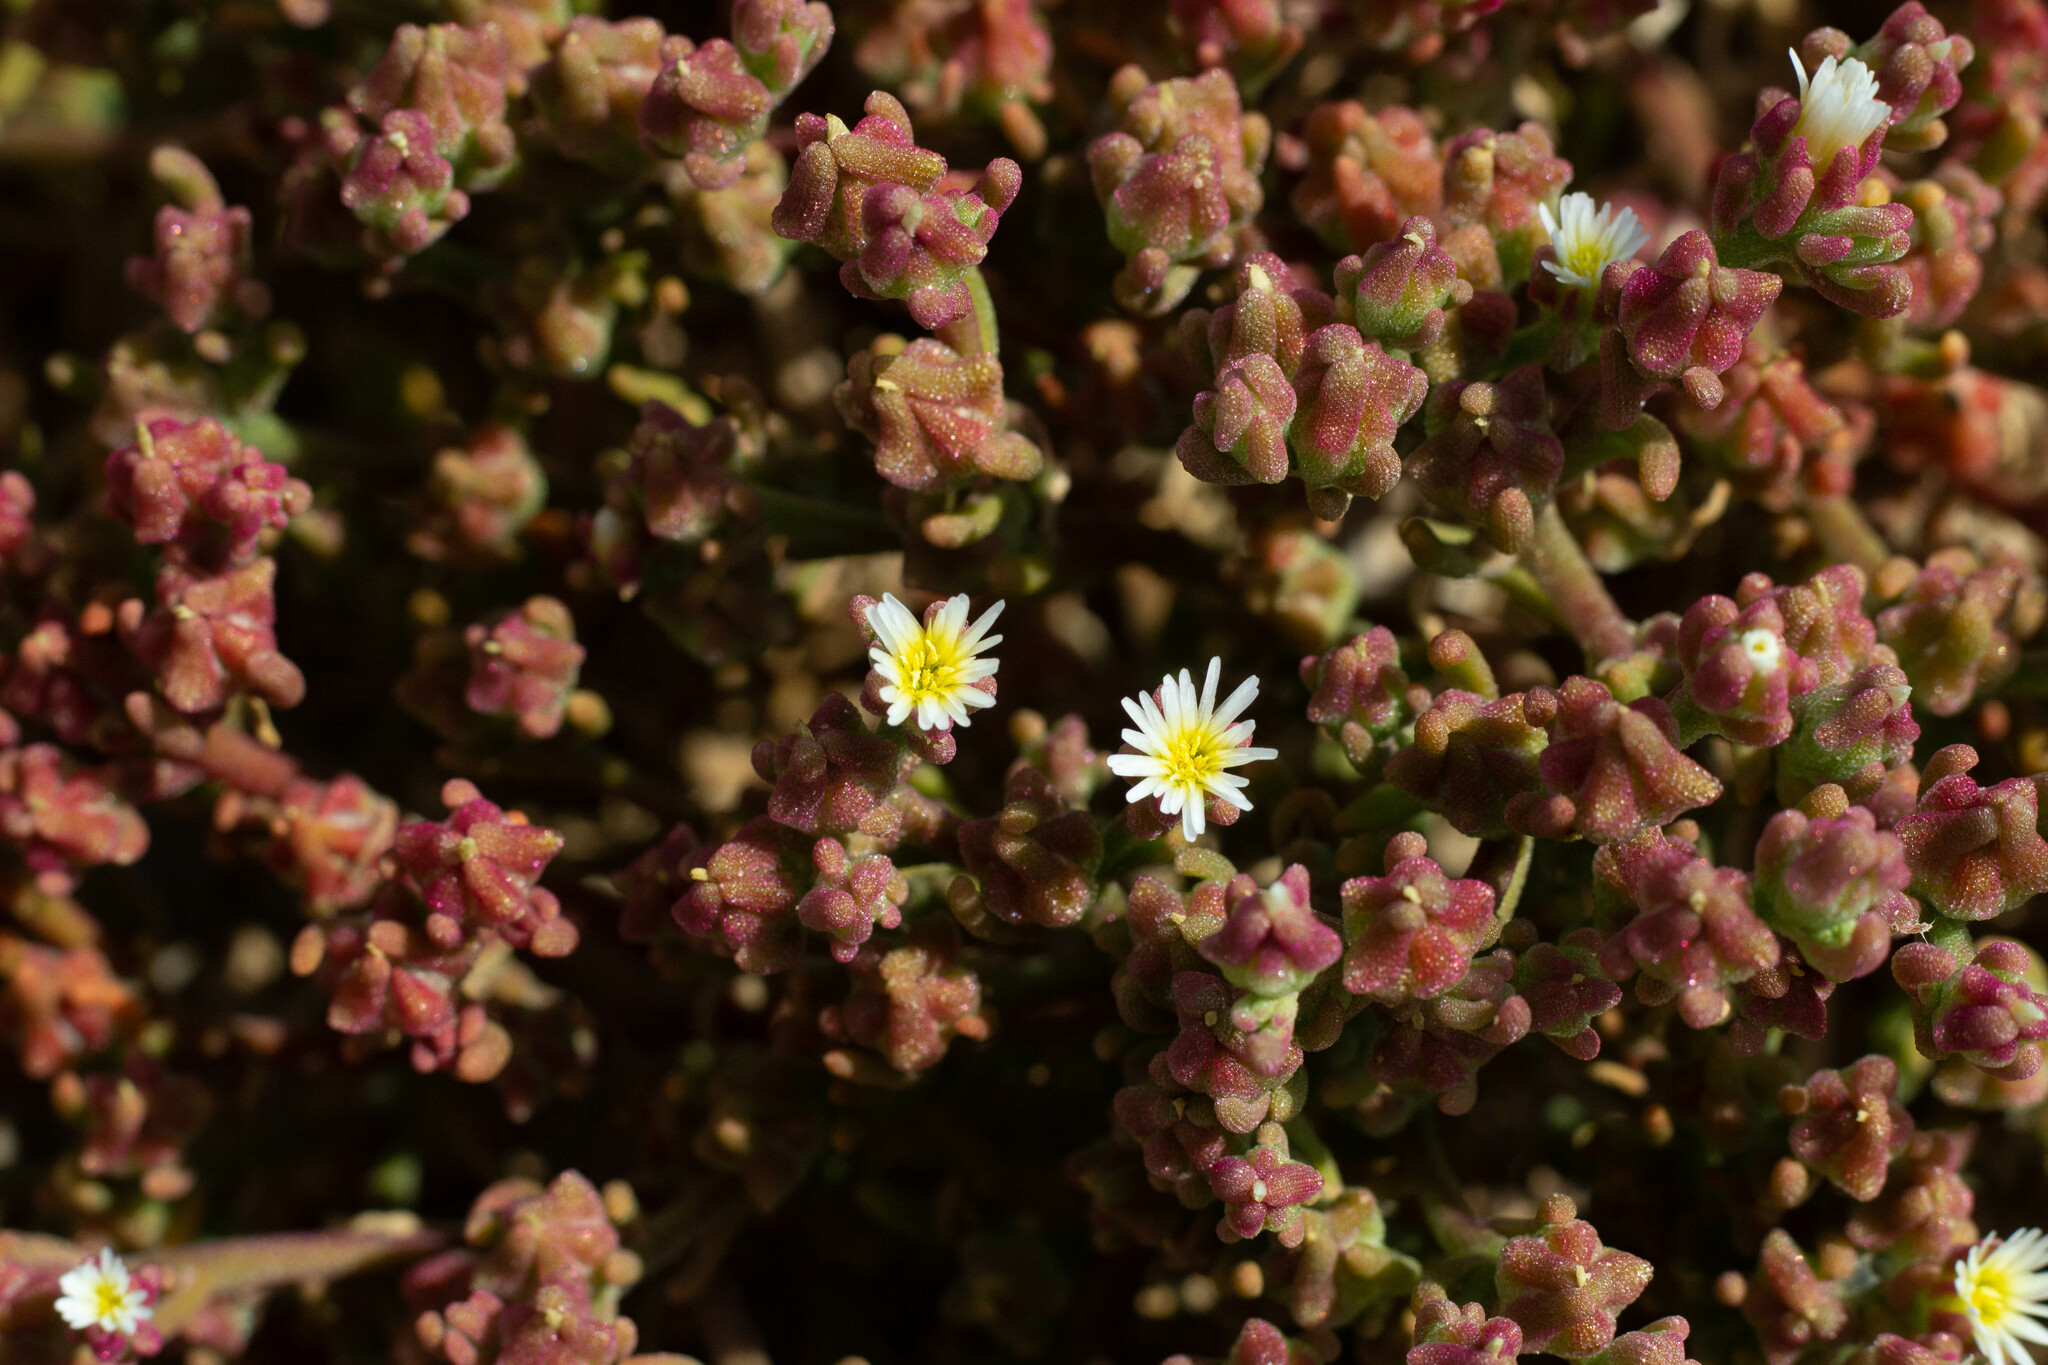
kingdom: Plantae
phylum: Tracheophyta
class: Magnoliopsida
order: Caryophyllales
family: Aizoaceae
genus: Mesembryanthemum
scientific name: Mesembryanthemum nodiflorum
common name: Slenderleaf iceplant
